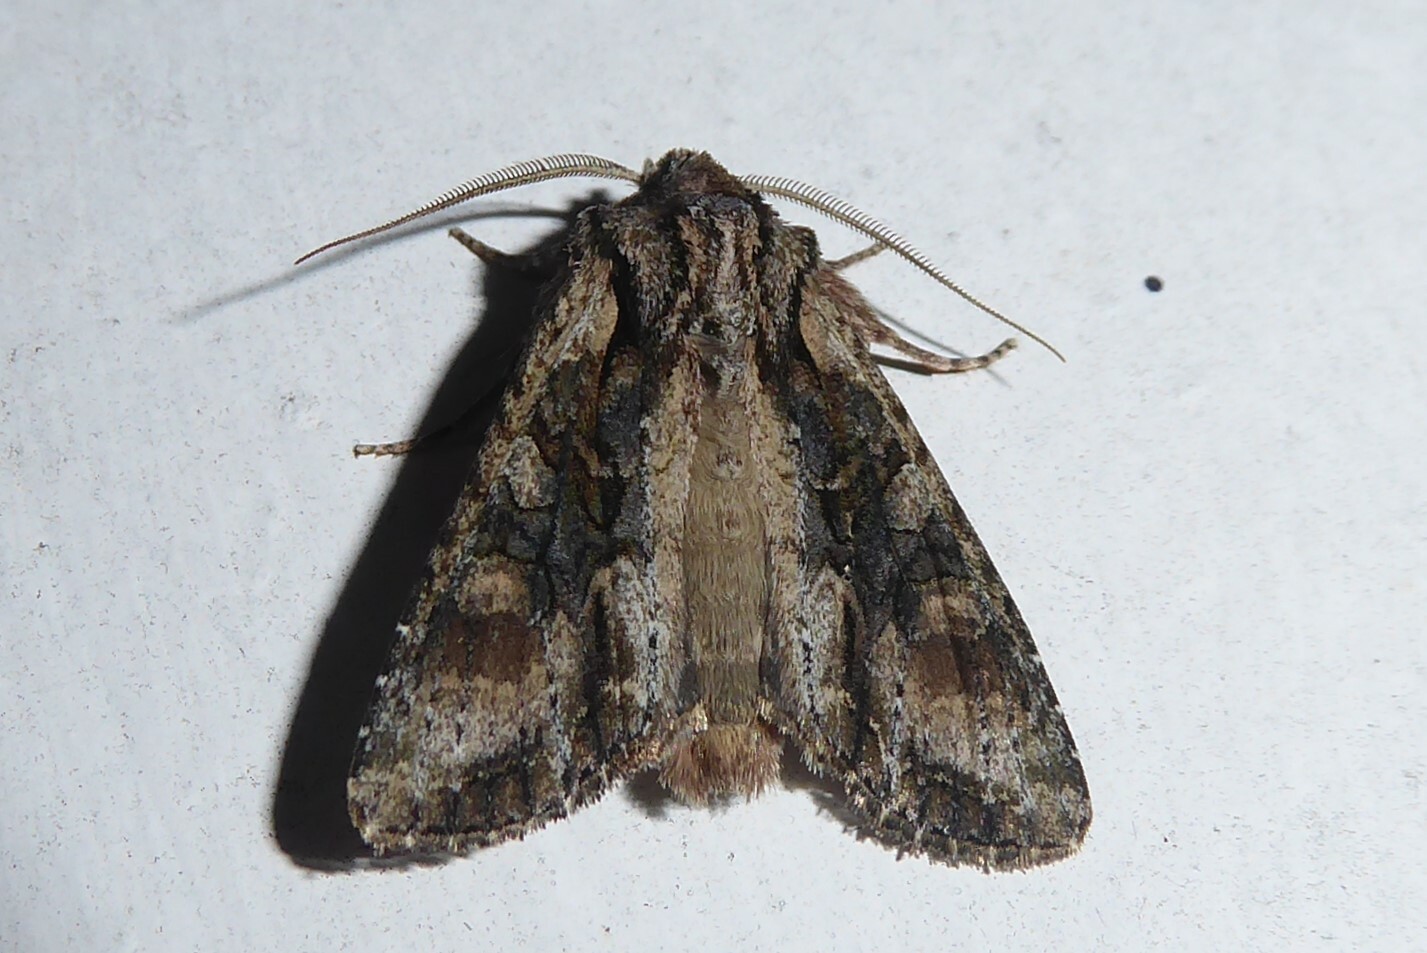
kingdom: Animalia
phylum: Arthropoda
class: Insecta
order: Lepidoptera
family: Noctuidae
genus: Ichneutica
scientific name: Ichneutica mutans
